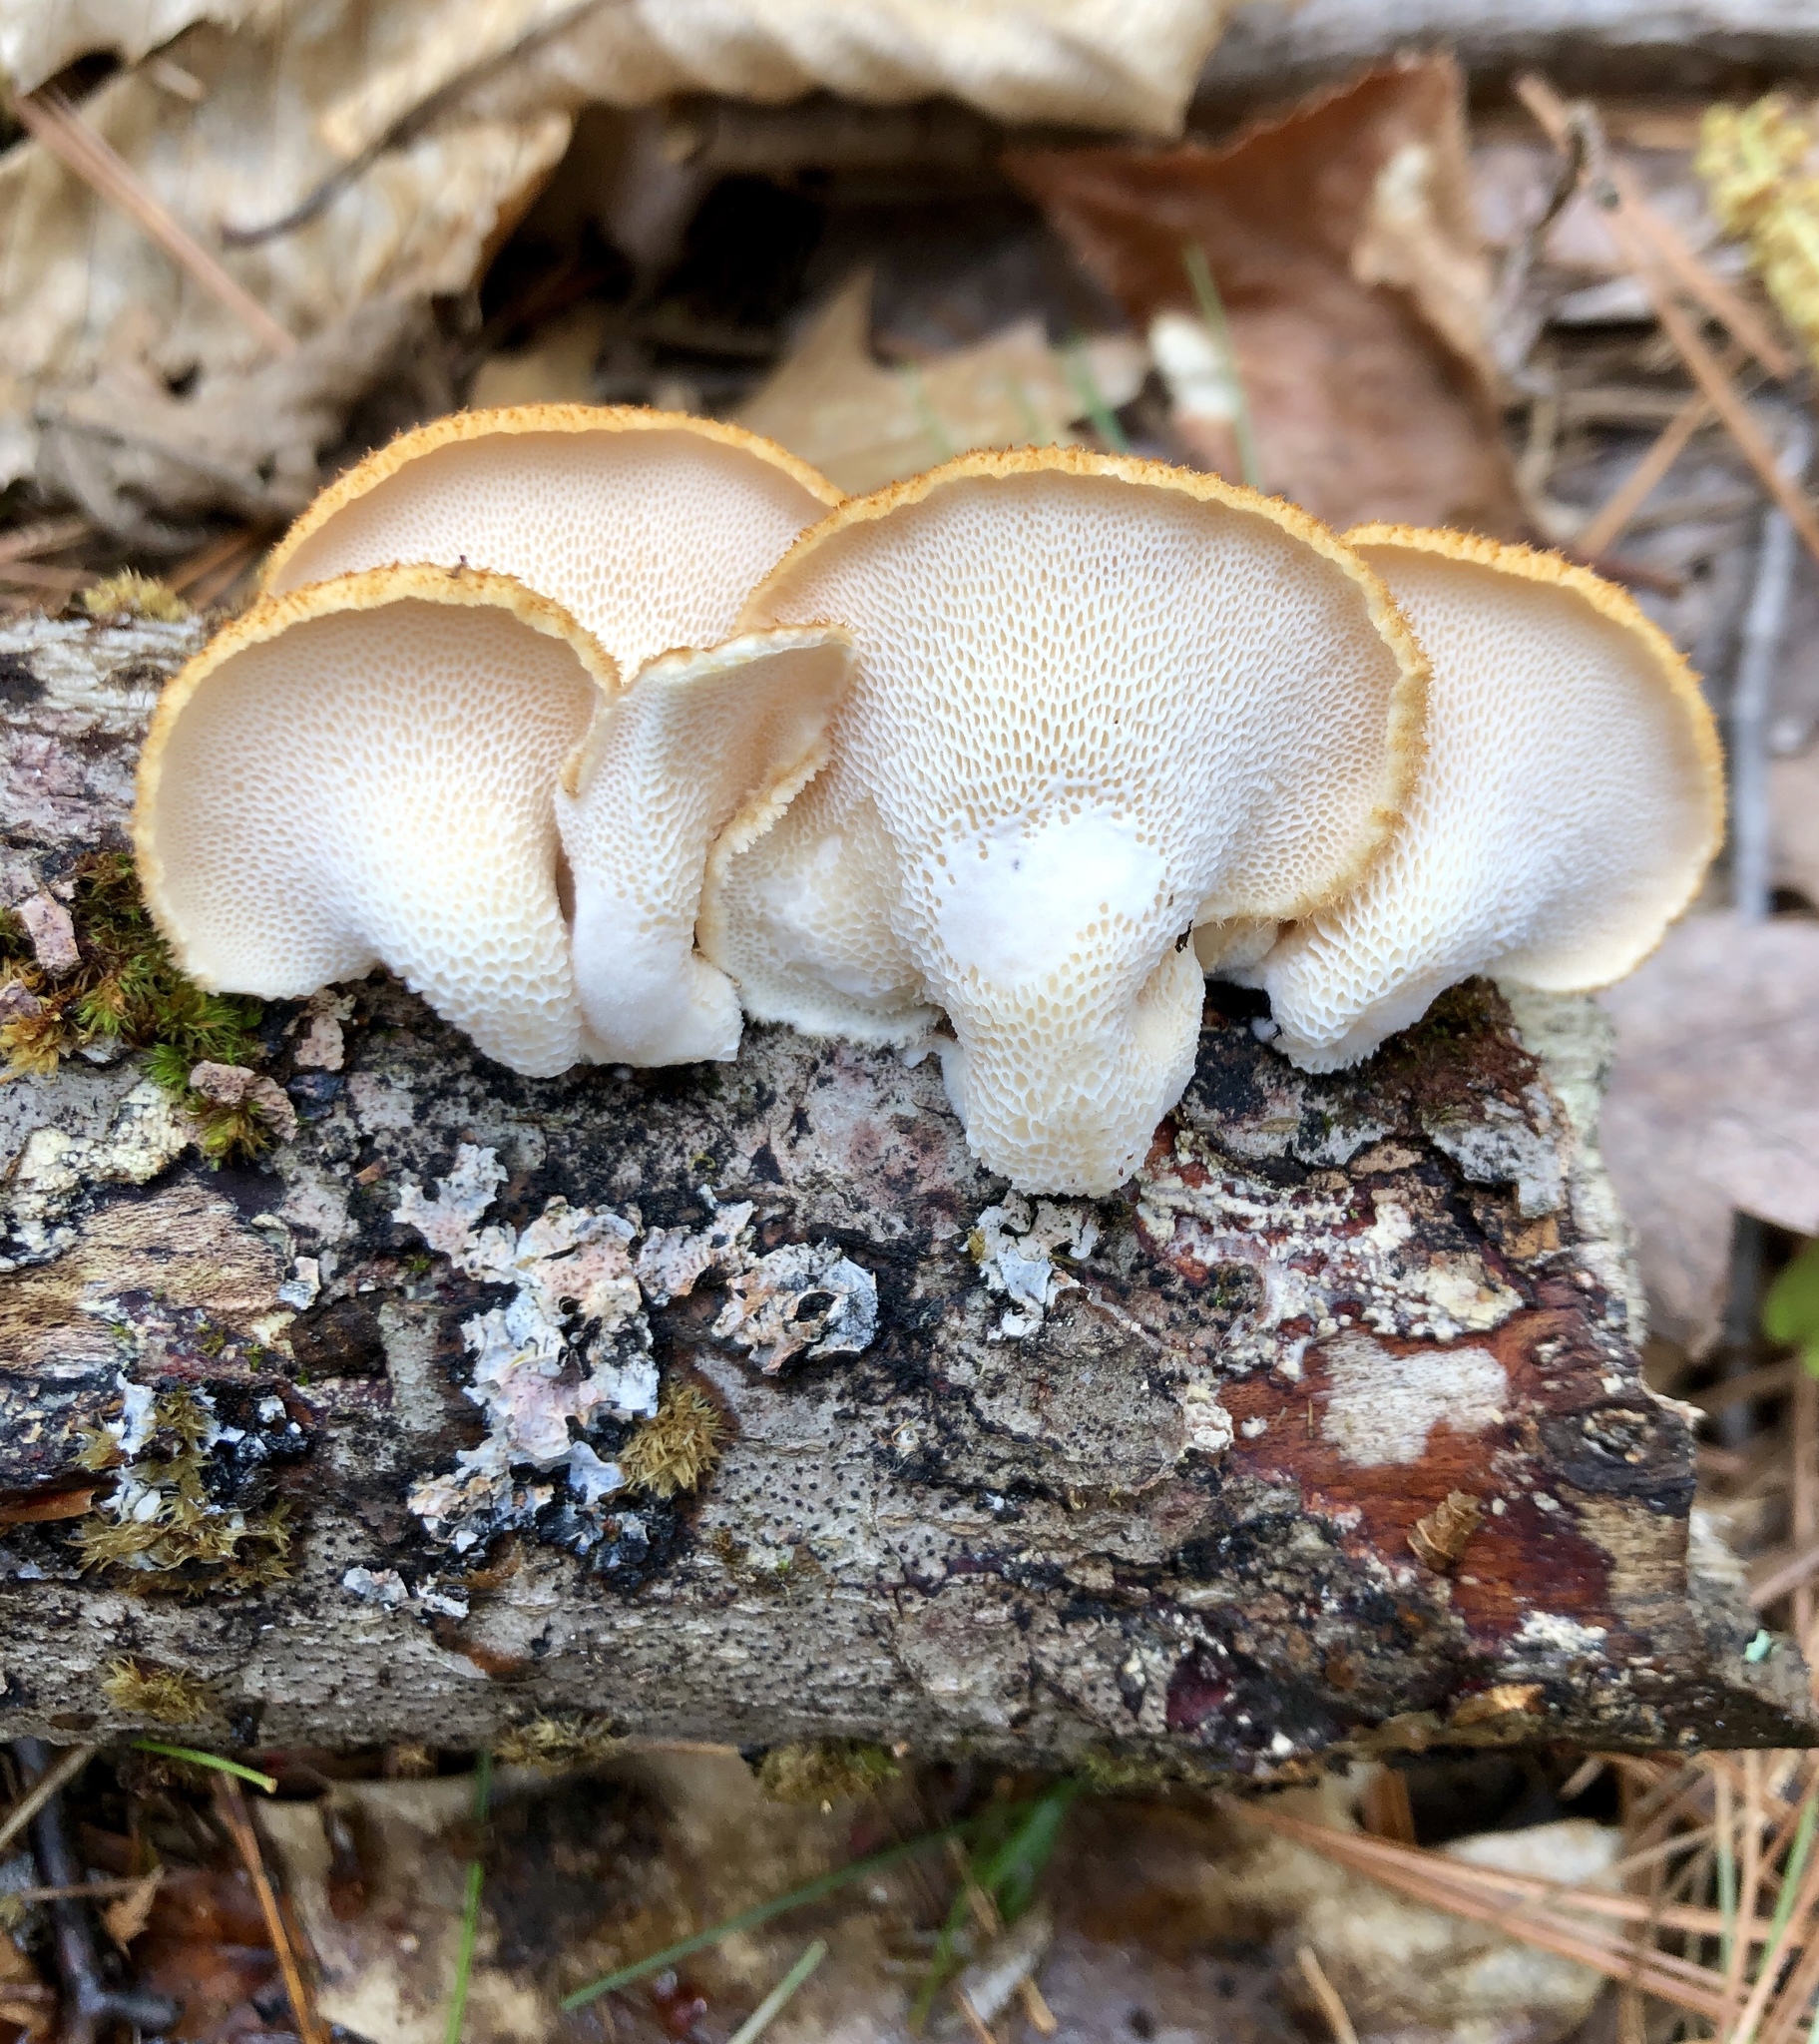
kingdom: Fungi
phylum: Basidiomycota
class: Agaricomycetes
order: Polyporales
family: Polyporaceae
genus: Neofavolus
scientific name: Neofavolus alveolaris
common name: Hexagonal-pored polypore
